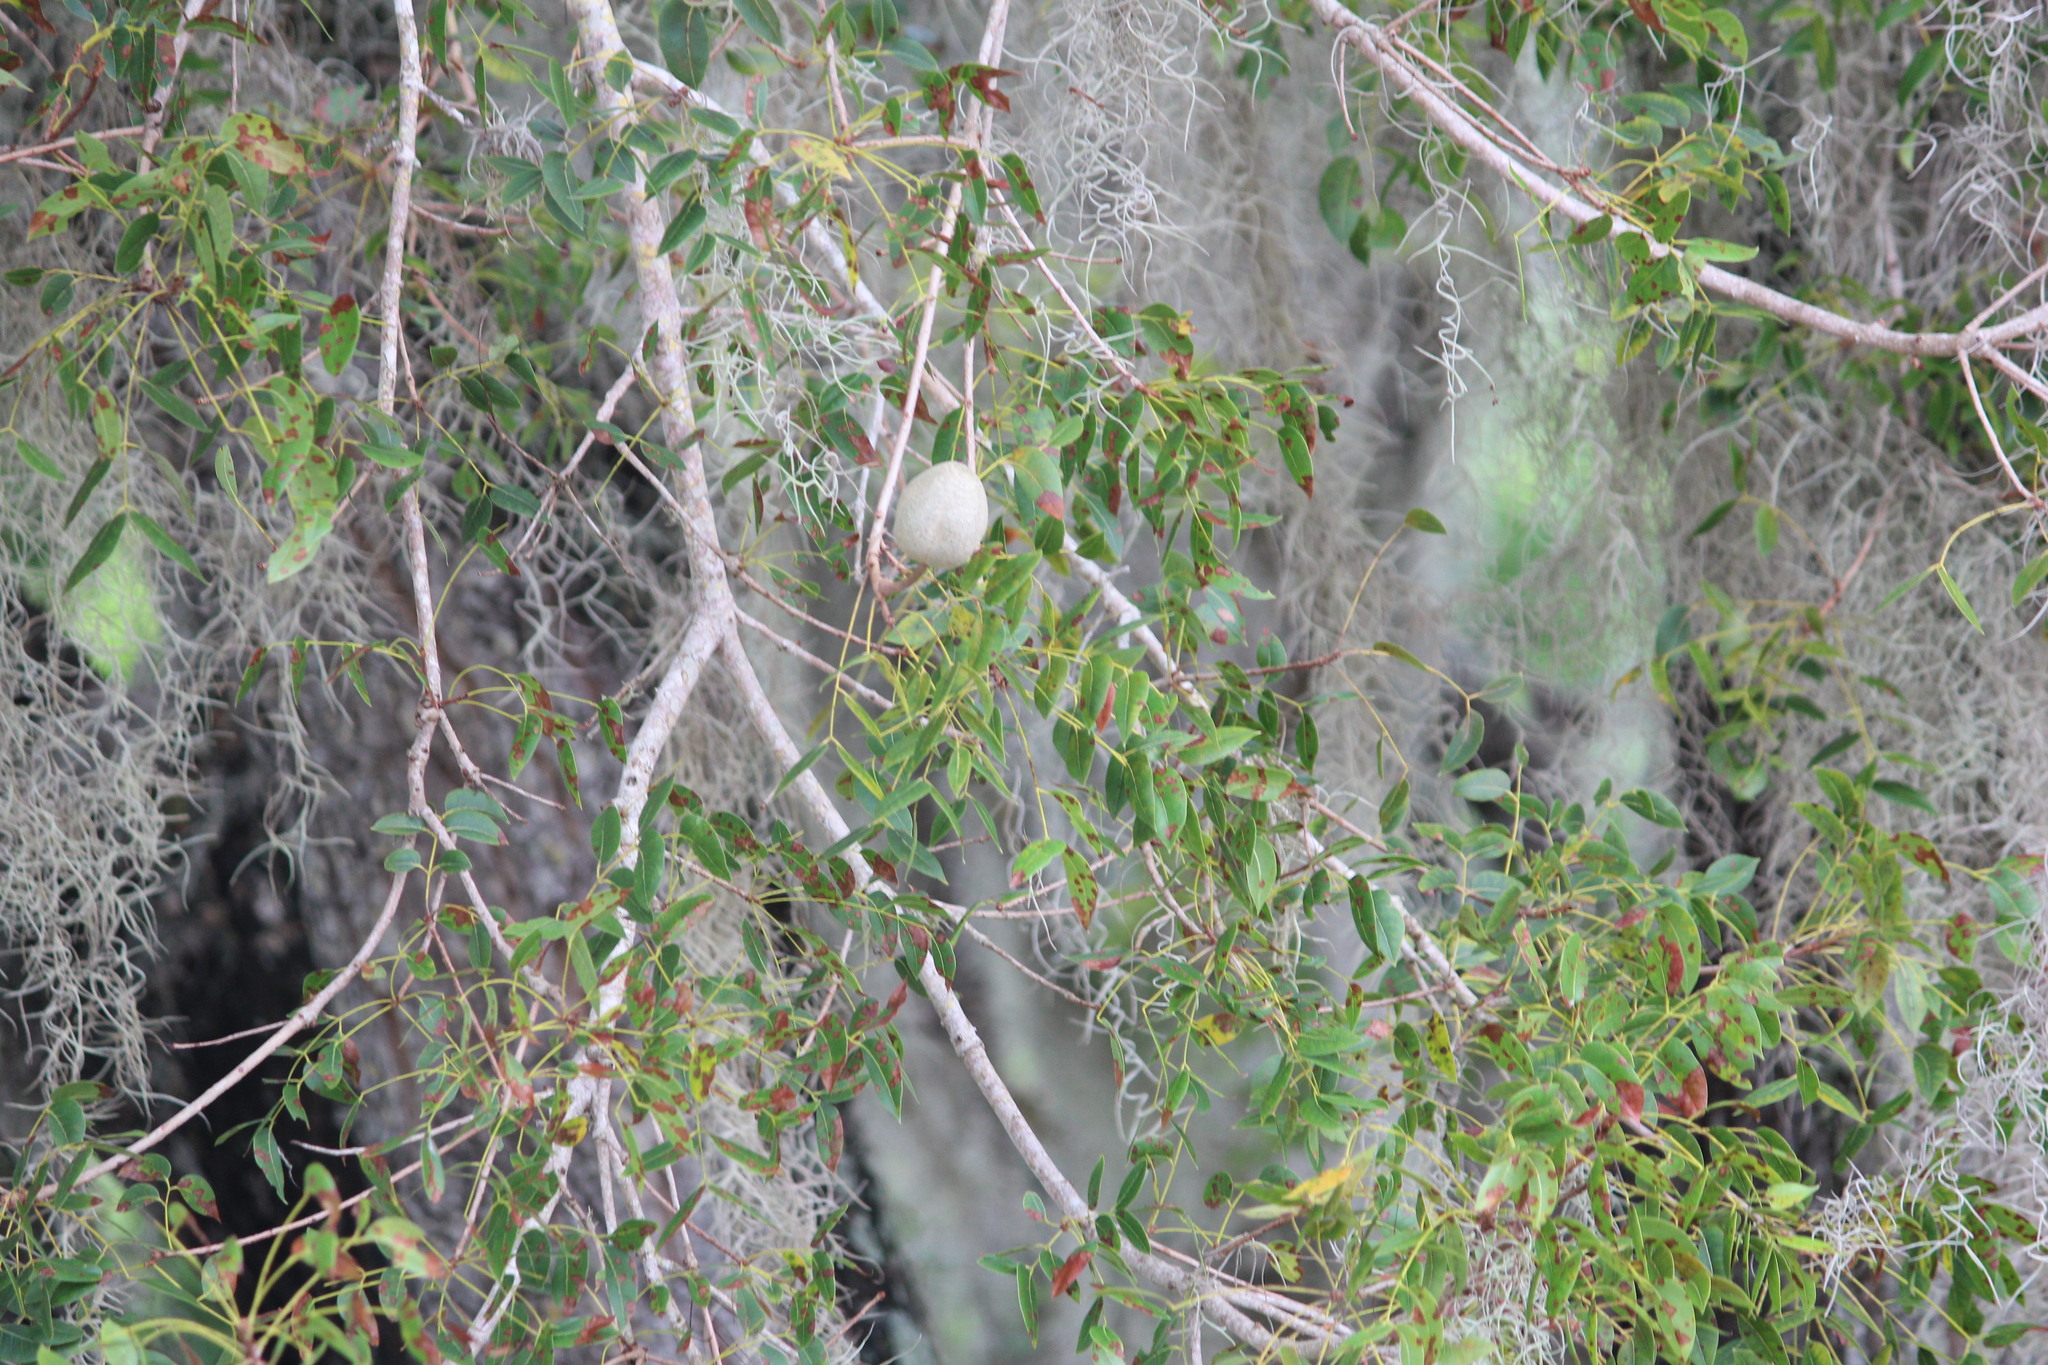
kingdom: Plantae
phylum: Tracheophyta
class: Magnoliopsida
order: Sapindales
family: Meliaceae
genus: Swietenia
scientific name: Swietenia mahagoni
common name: West indian mahogany
